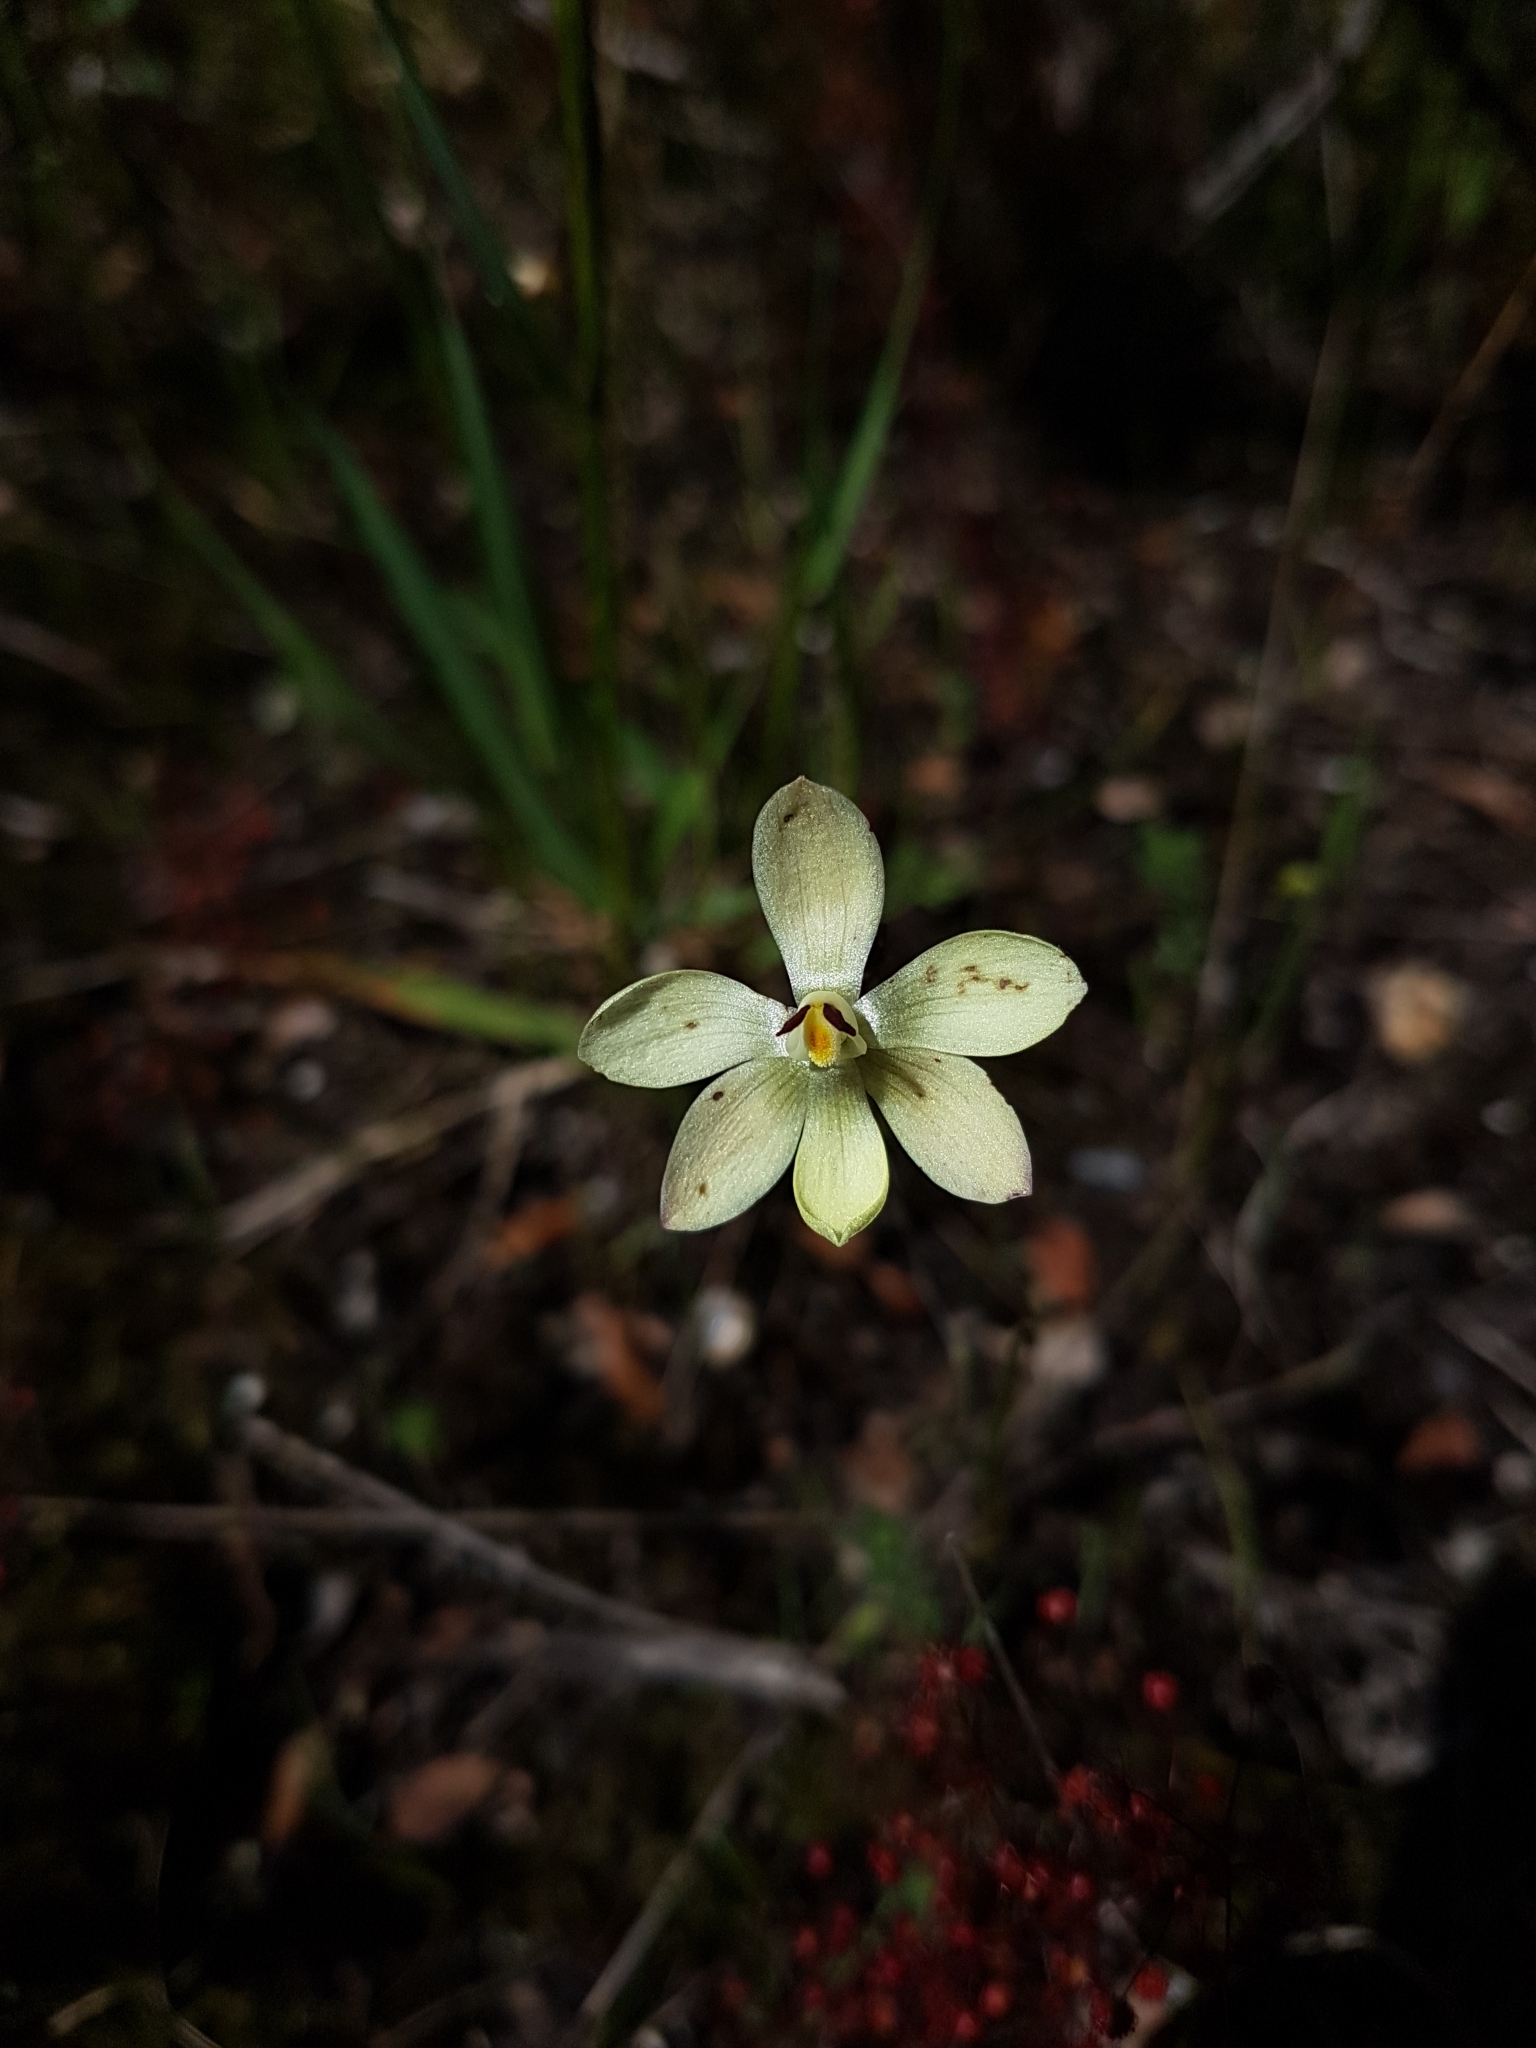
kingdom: Plantae
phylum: Tracheophyta
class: Liliopsida
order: Asparagales
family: Orchidaceae
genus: Thelymitra
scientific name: Thelymitra antennifera
